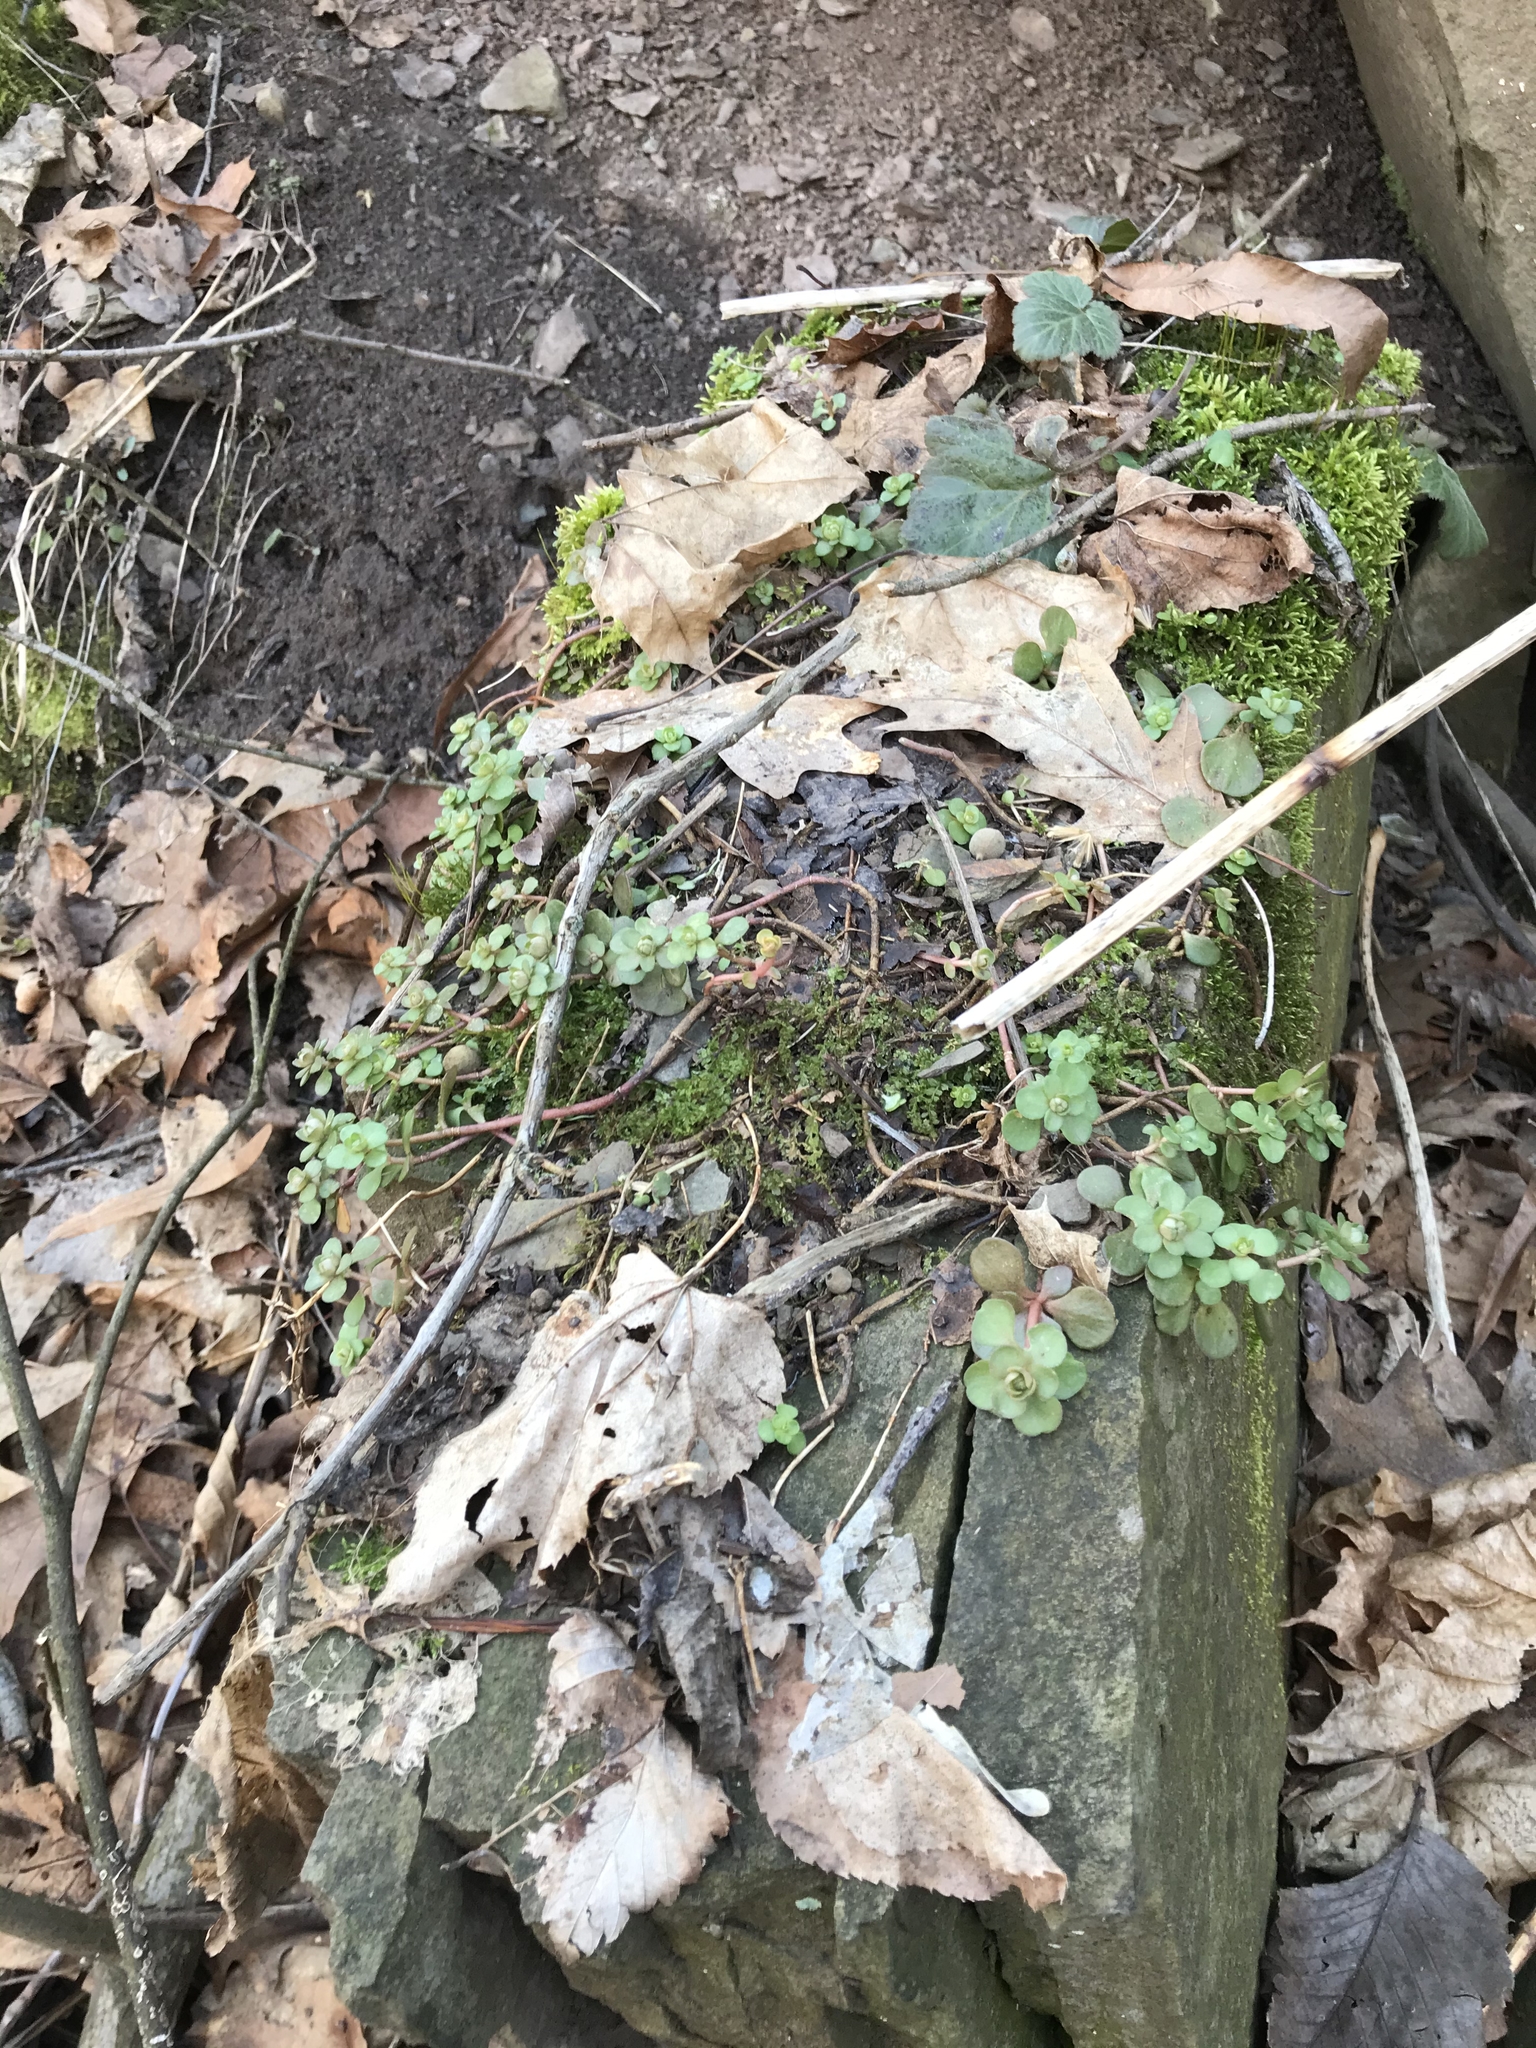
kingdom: Plantae
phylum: Tracheophyta
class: Magnoliopsida
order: Saxifragales
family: Crassulaceae
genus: Sedum
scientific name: Sedum ternatum
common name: Wild stonecrop
